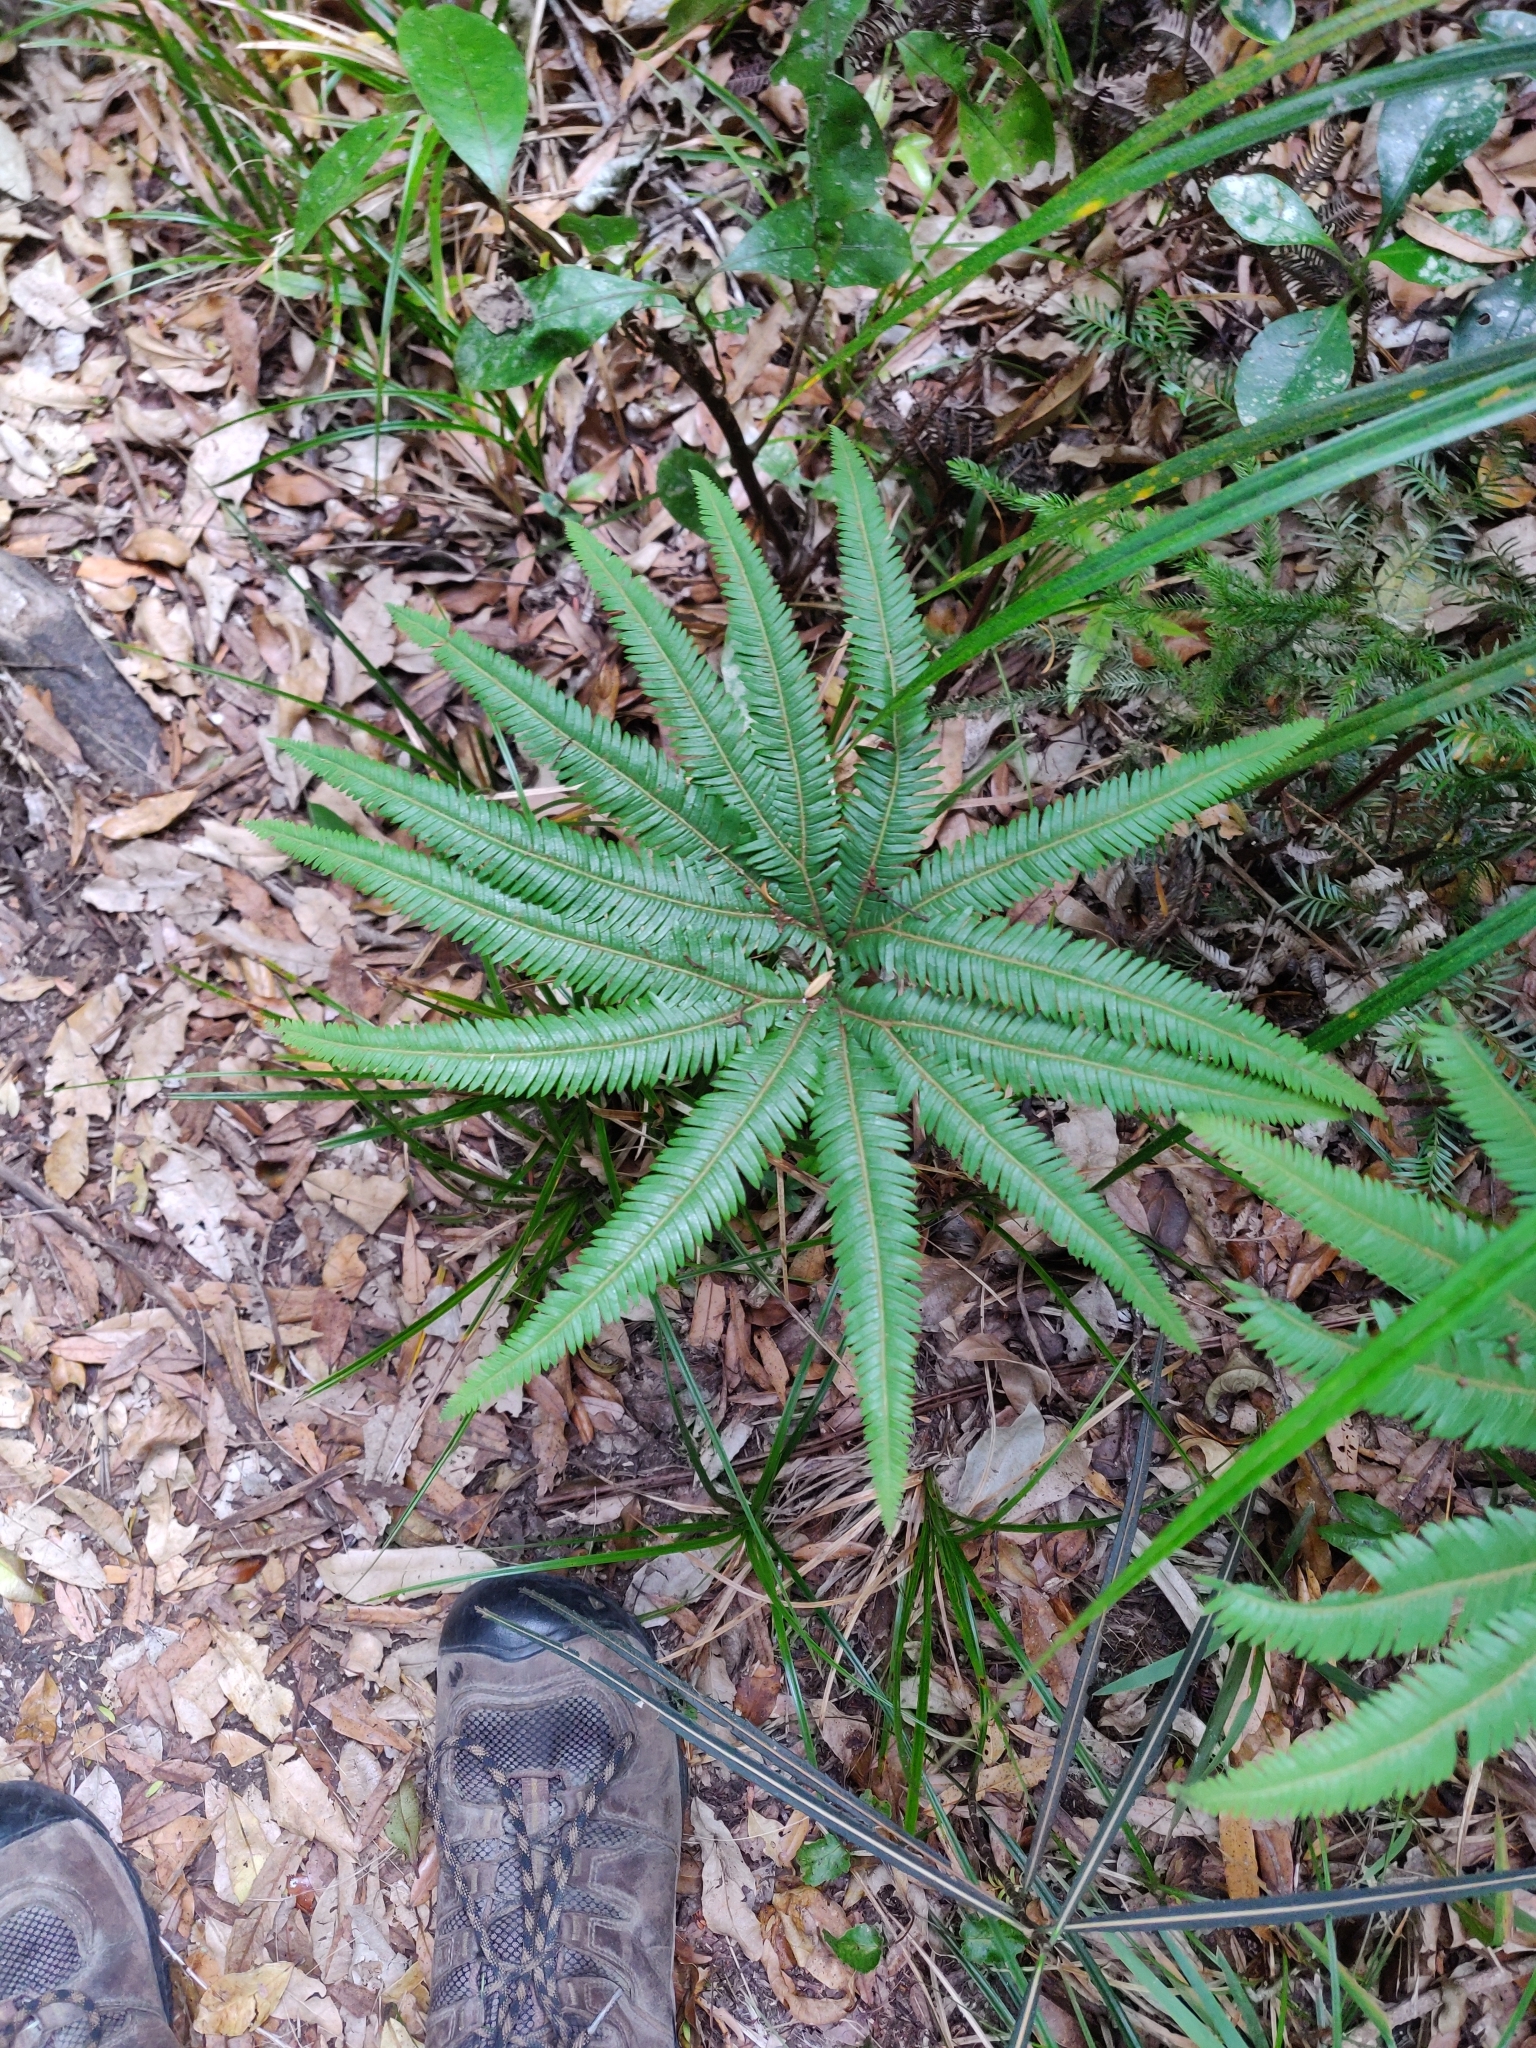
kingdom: Plantae
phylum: Tracheophyta
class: Polypodiopsida
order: Gleicheniales
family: Gleicheniaceae
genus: Sticherus
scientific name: Sticherus cunninghamii
